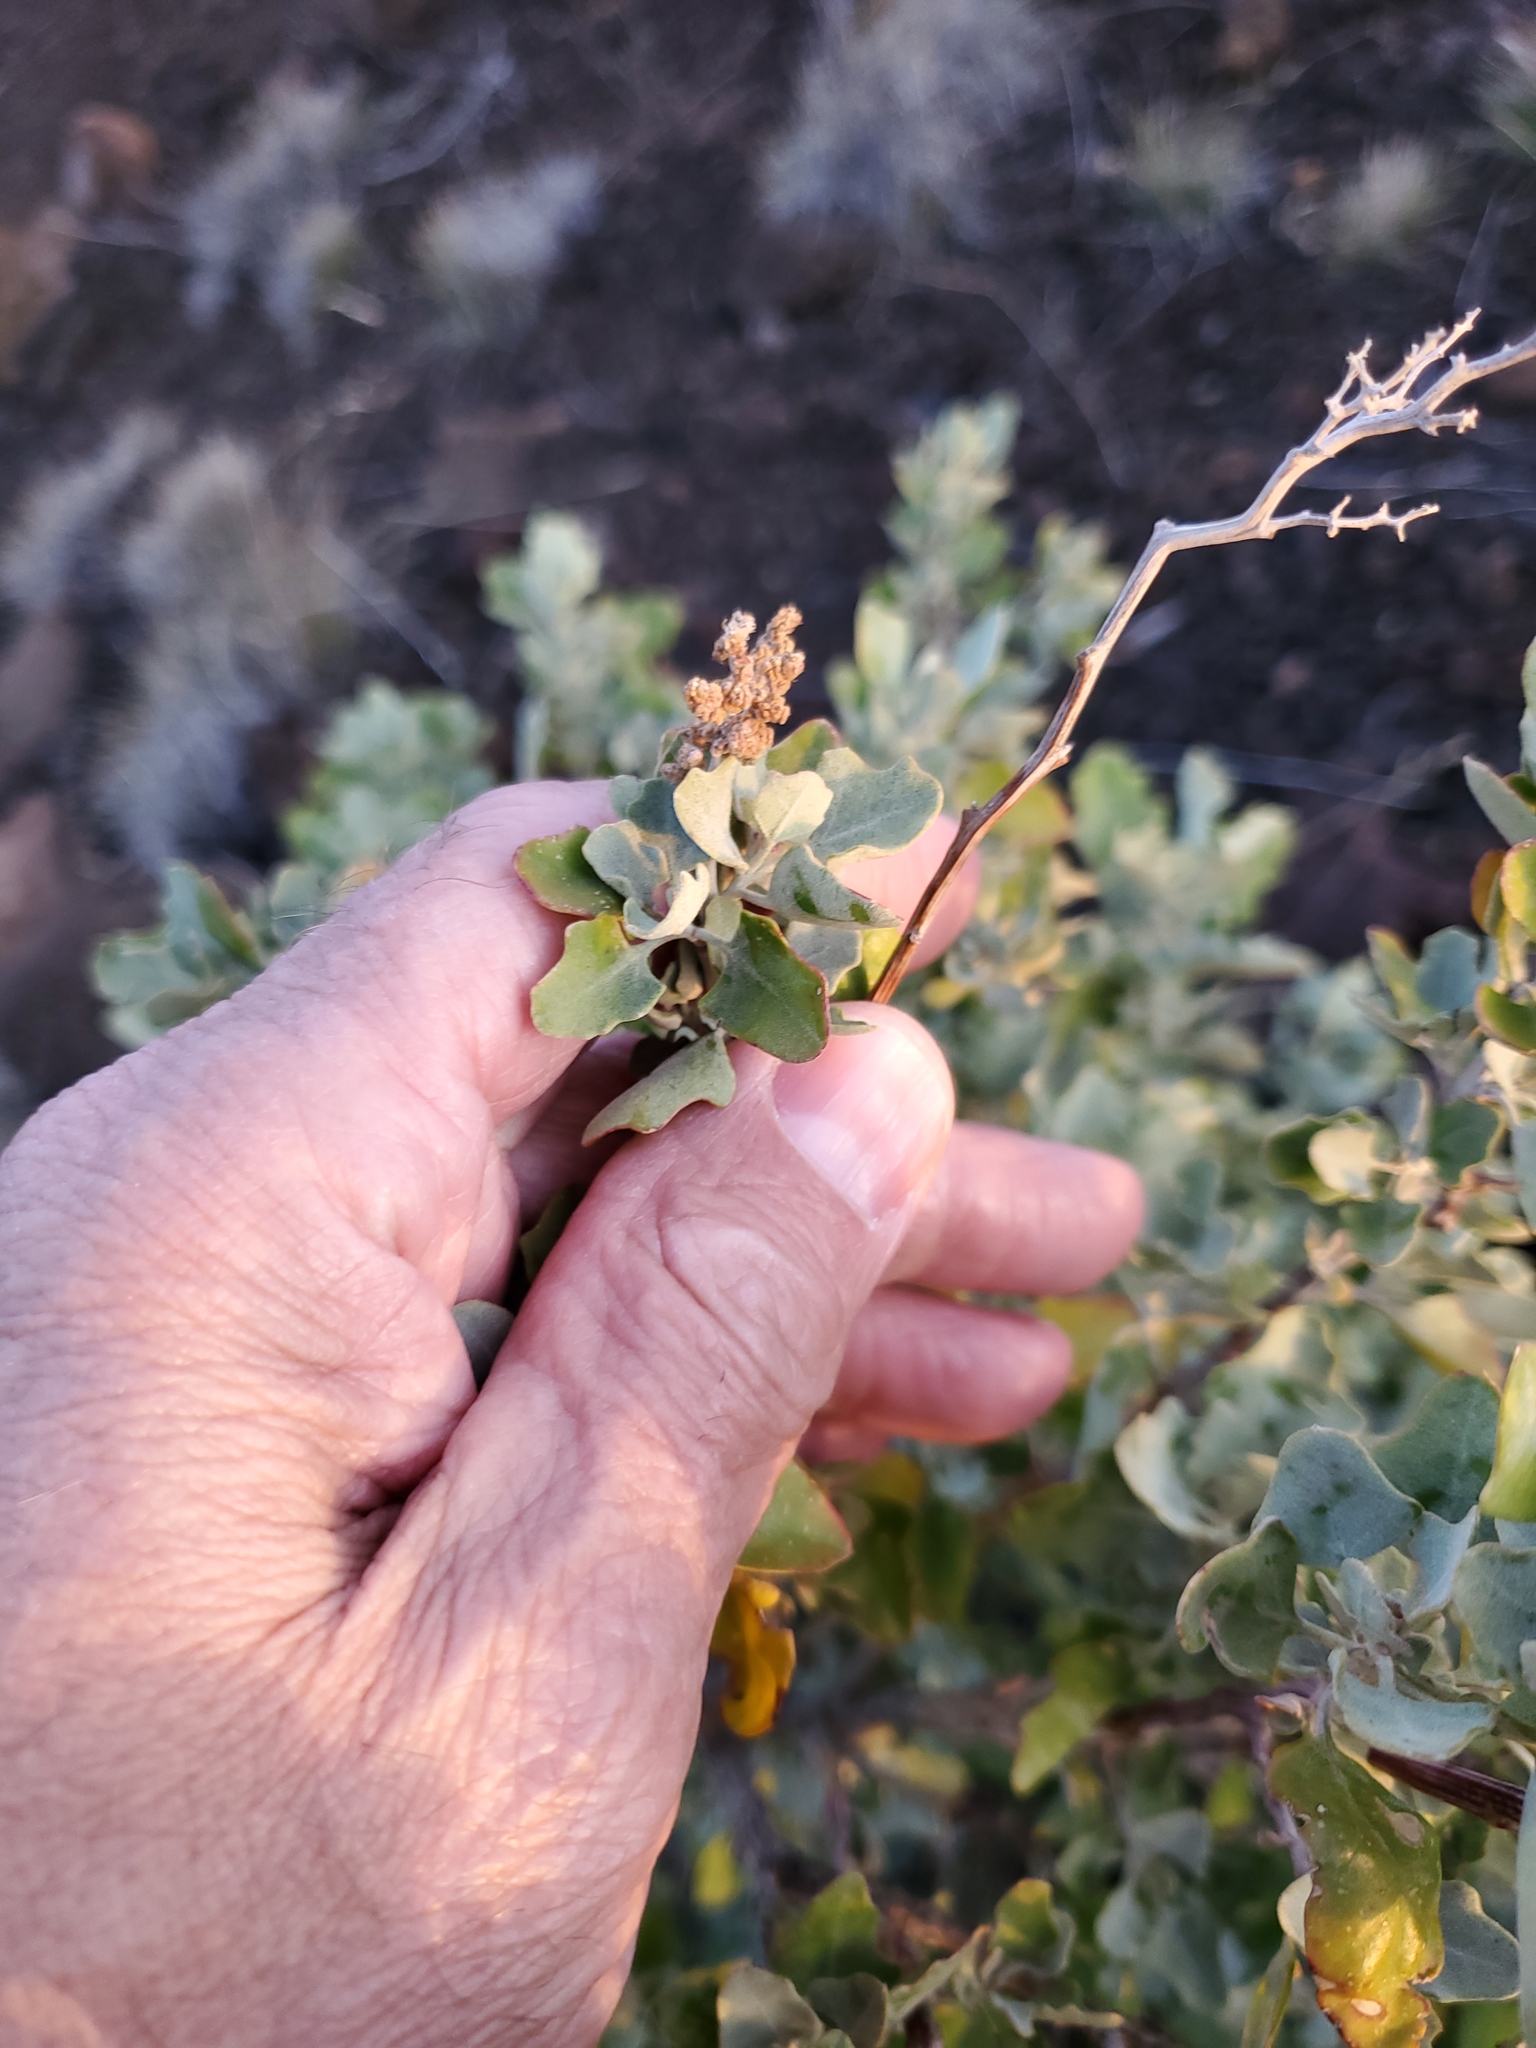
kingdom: Plantae
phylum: Tracheophyta
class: Magnoliopsida
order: Caryophyllales
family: Amaranthaceae
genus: Chenopodium
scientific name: Chenopodium oahuense
